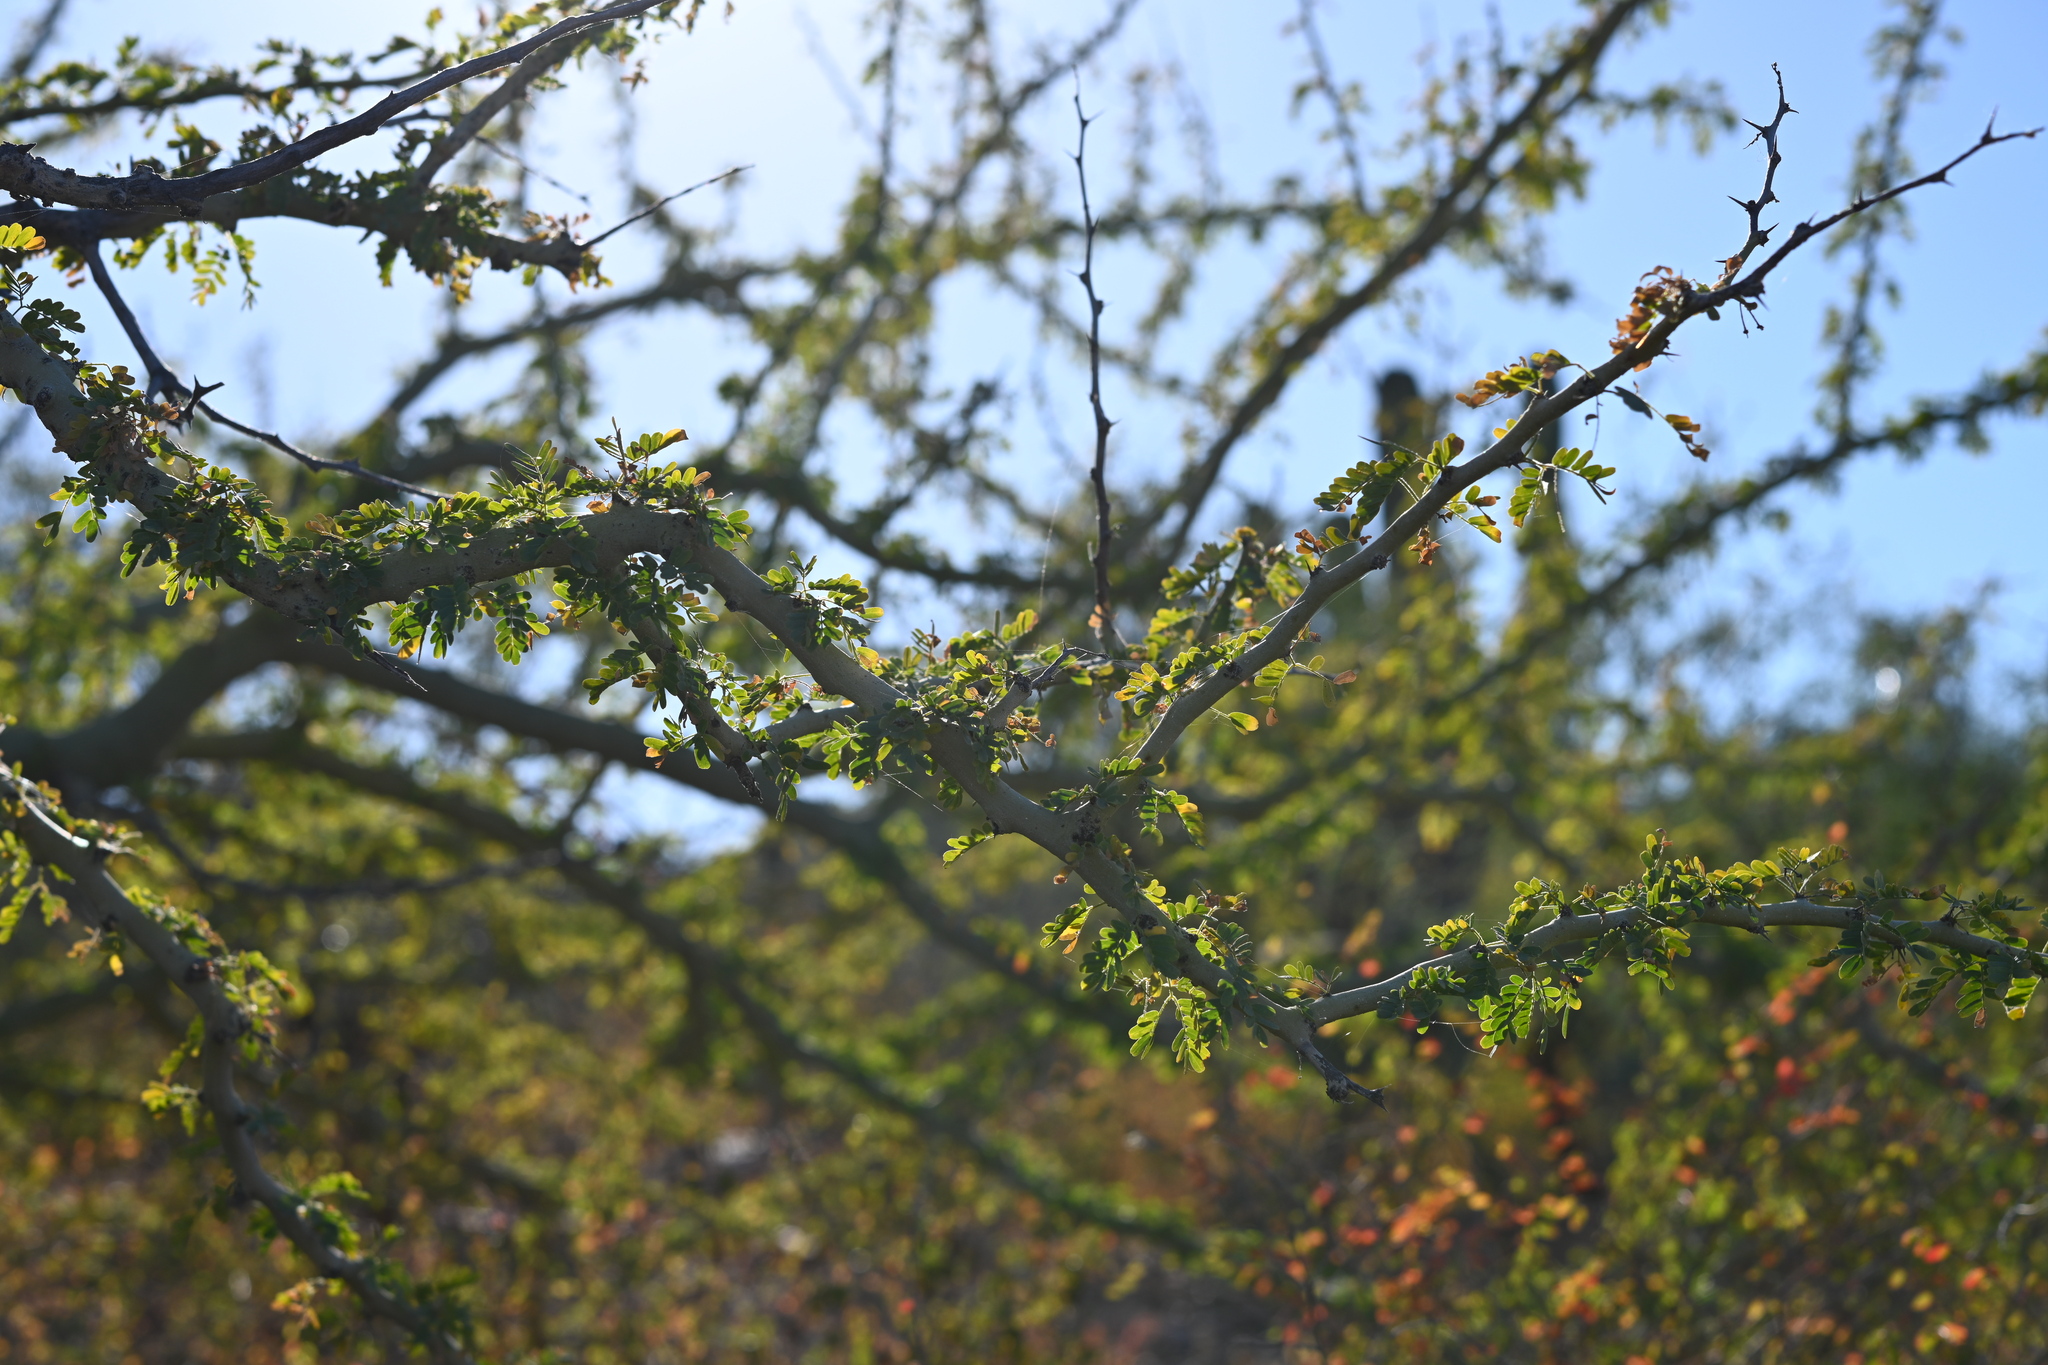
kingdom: Plantae
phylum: Tracheophyta
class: Magnoliopsida
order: Fabales
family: Fabaceae
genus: Parkinsonia
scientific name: Parkinsonia praecox
